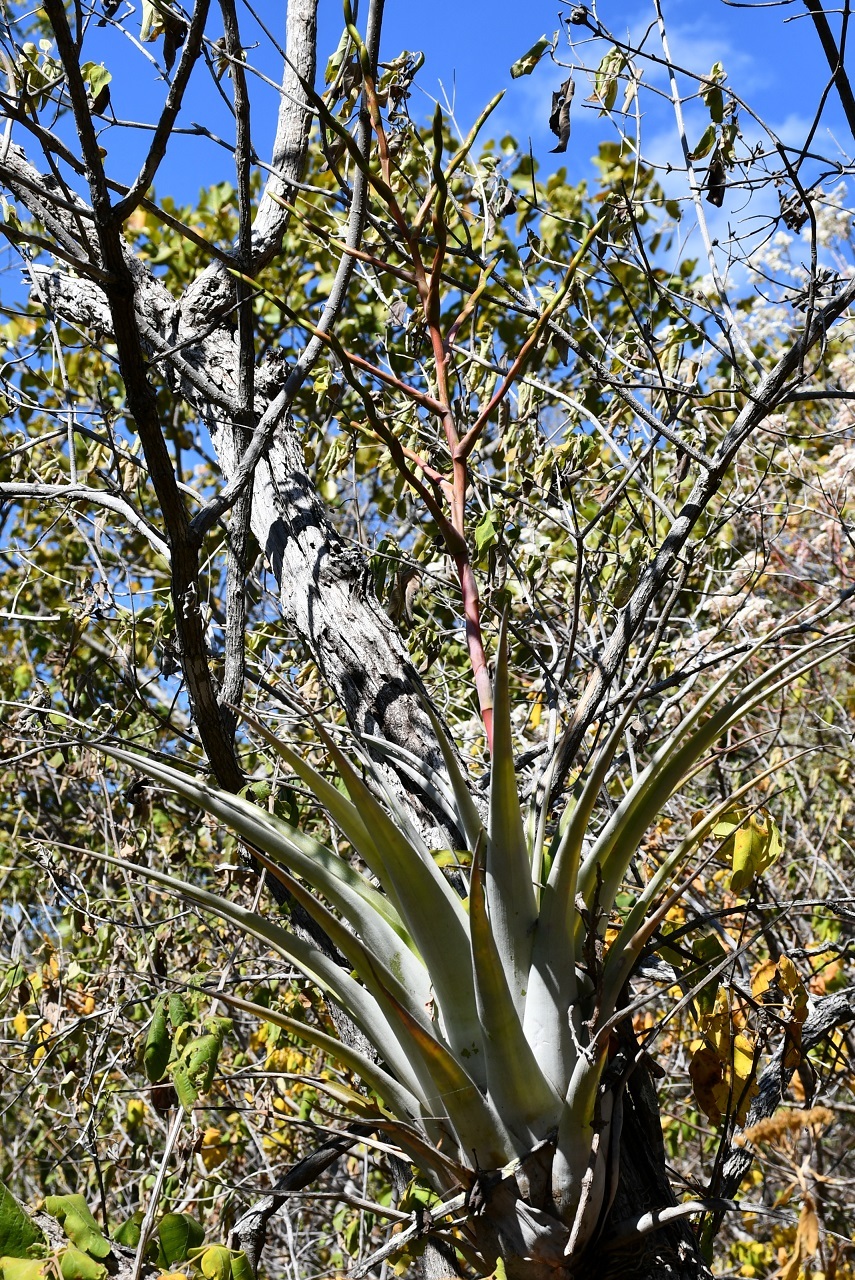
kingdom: Plantae
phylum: Tracheophyta
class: Liliopsida
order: Poales
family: Bromeliaceae
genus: Tillandsia
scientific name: Tillandsia elusiva
